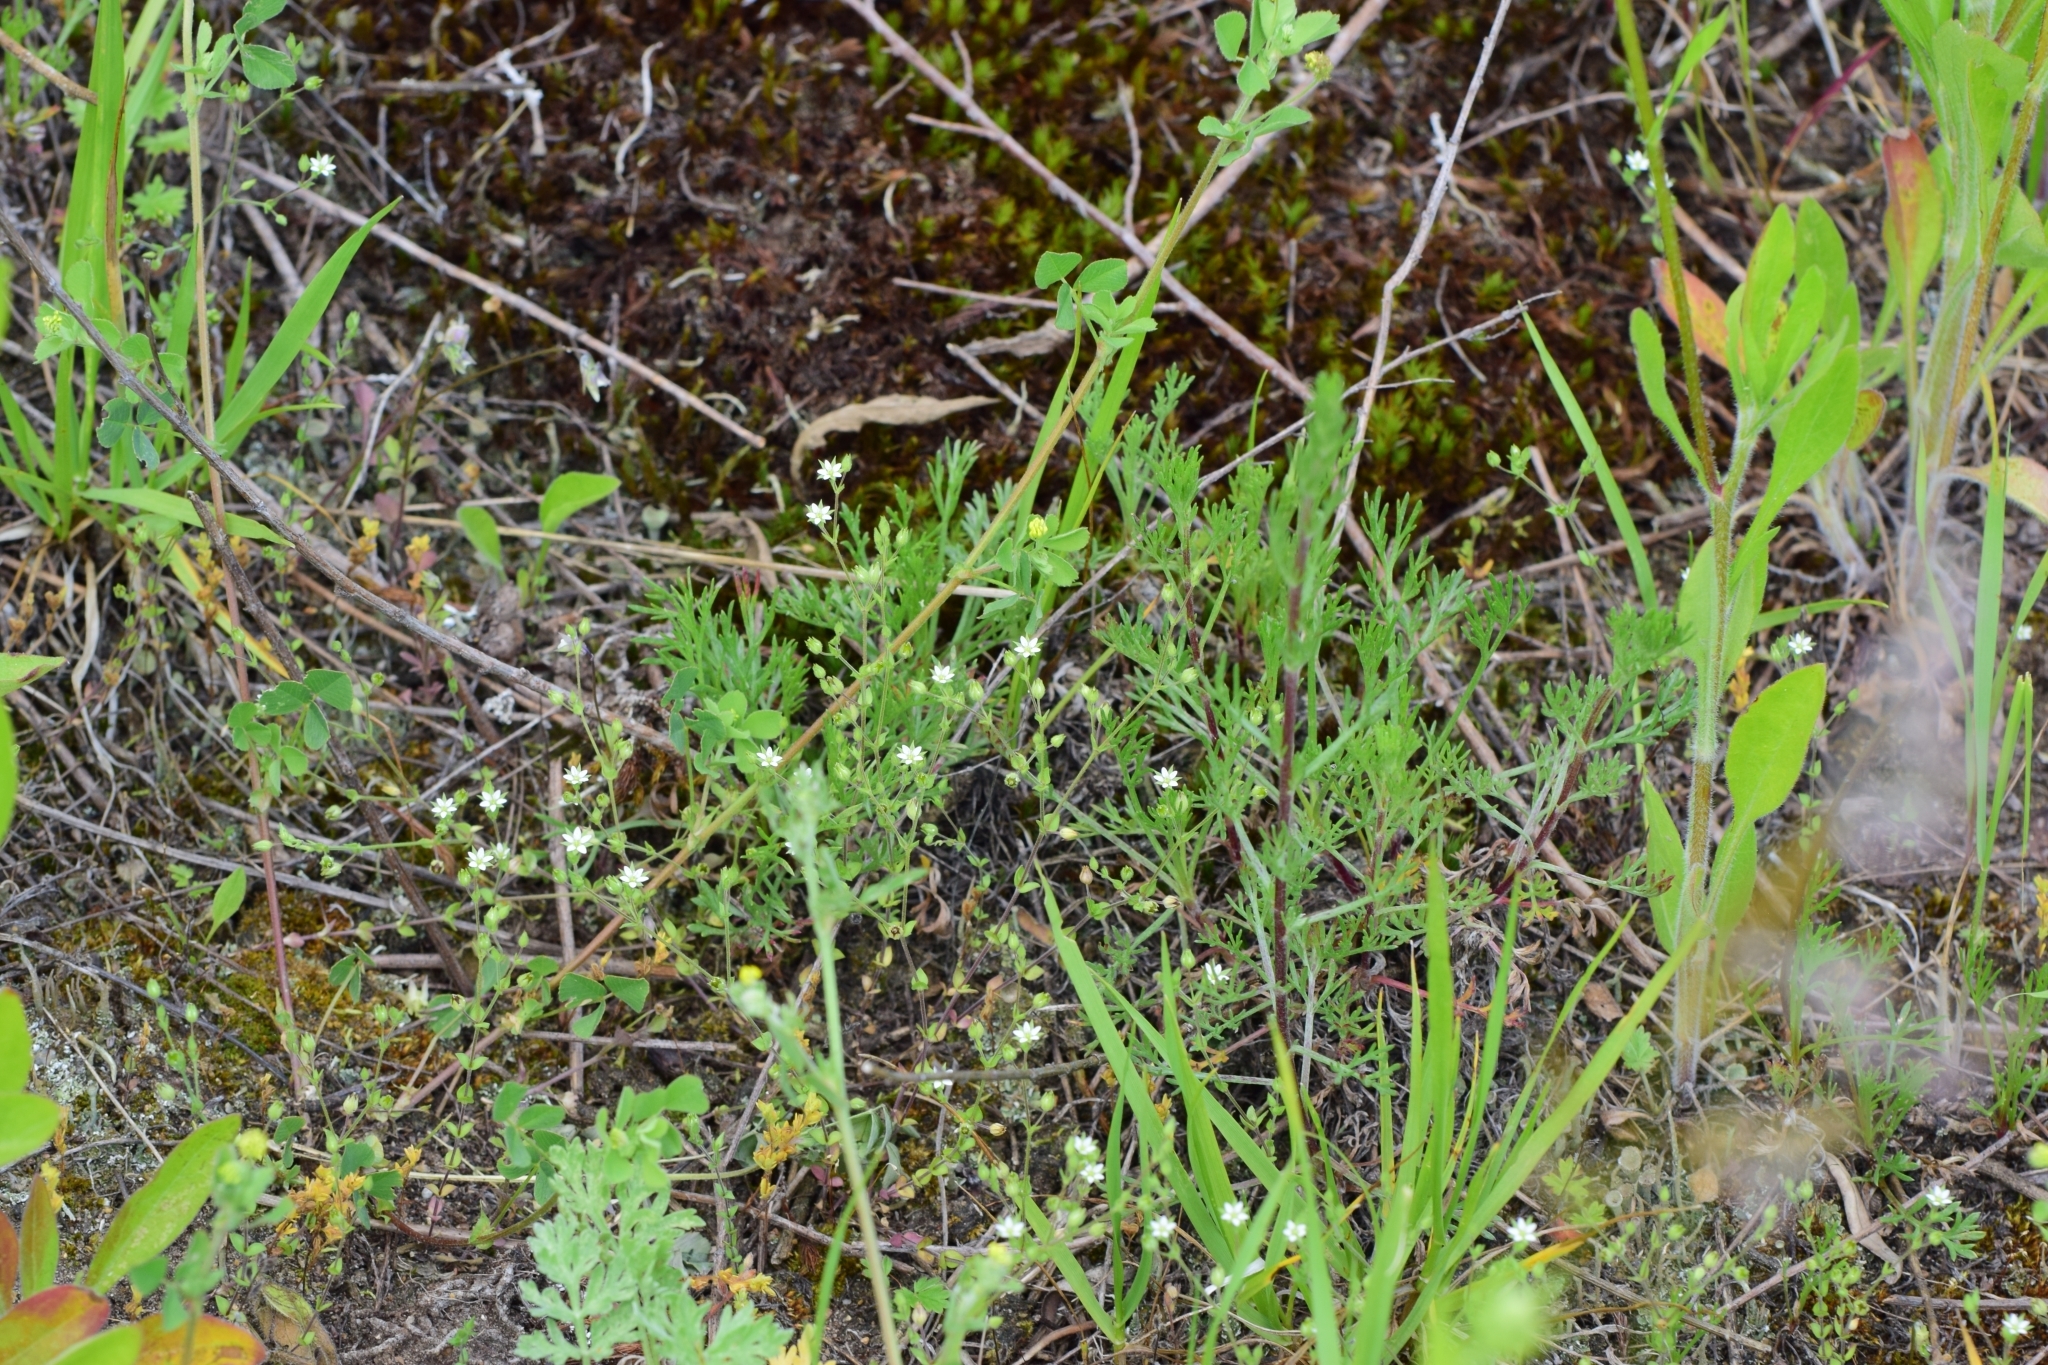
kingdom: Plantae
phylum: Tracheophyta
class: Magnoliopsida
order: Caryophyllales
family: Caryophyllaceae
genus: Arenaria
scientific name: Arenaria serpyllifolia
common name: Thyme-leaved sandwort
